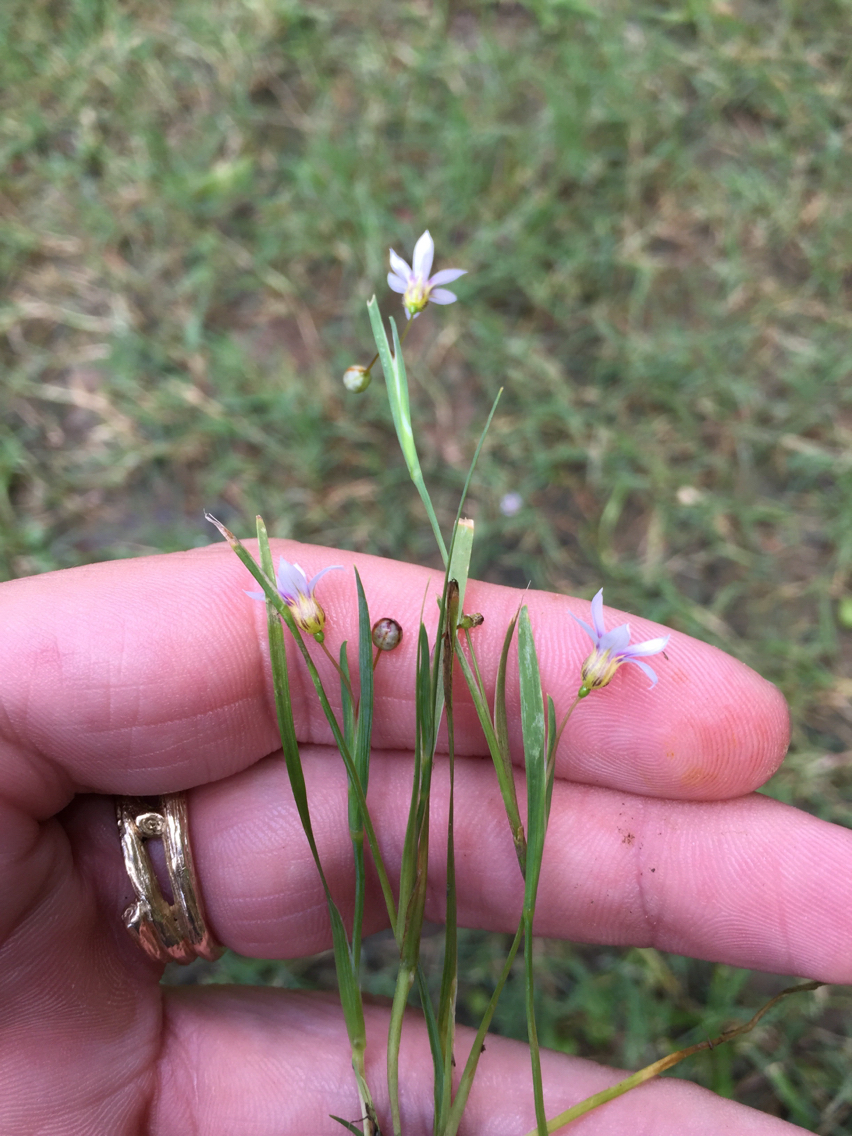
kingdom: Plantae
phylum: Tracheophyta
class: Liliopsida
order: Asparagales
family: Iridaceae
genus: Sisyrinchium
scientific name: Sisyrinchium micranthum
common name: Bermuda pigroot
